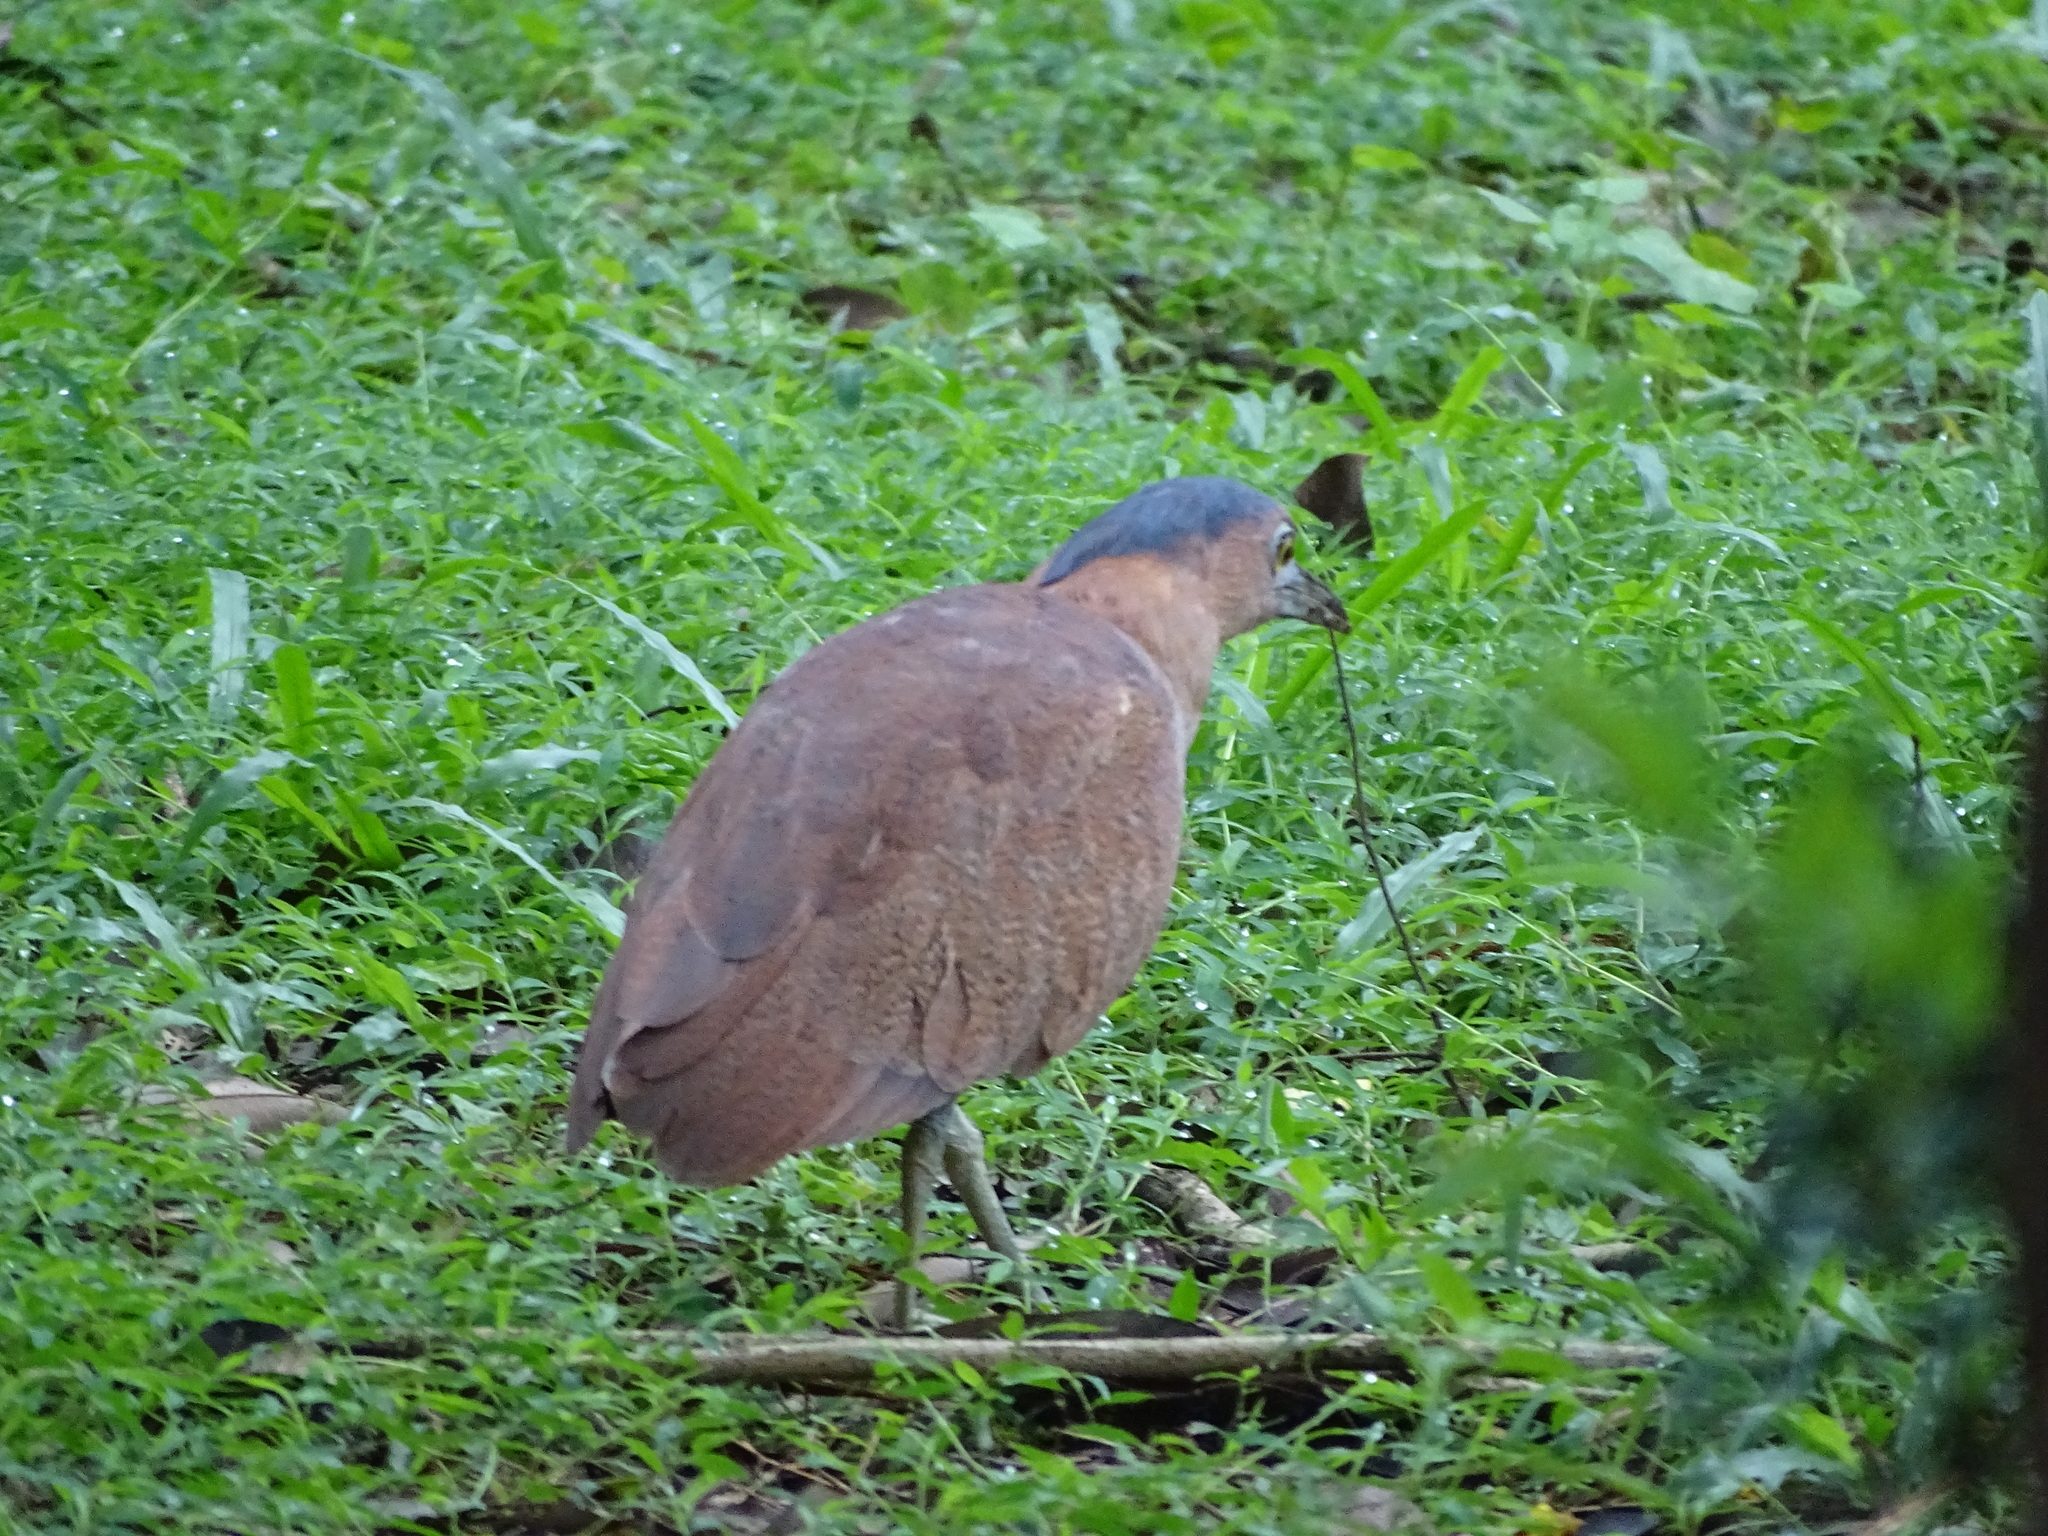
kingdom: Animalia
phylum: Chordata
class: Aves
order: Pelecaniformes
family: Ardeidae
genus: Gorsachius
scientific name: Gorsachius melanolophus
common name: Malayan night heron
